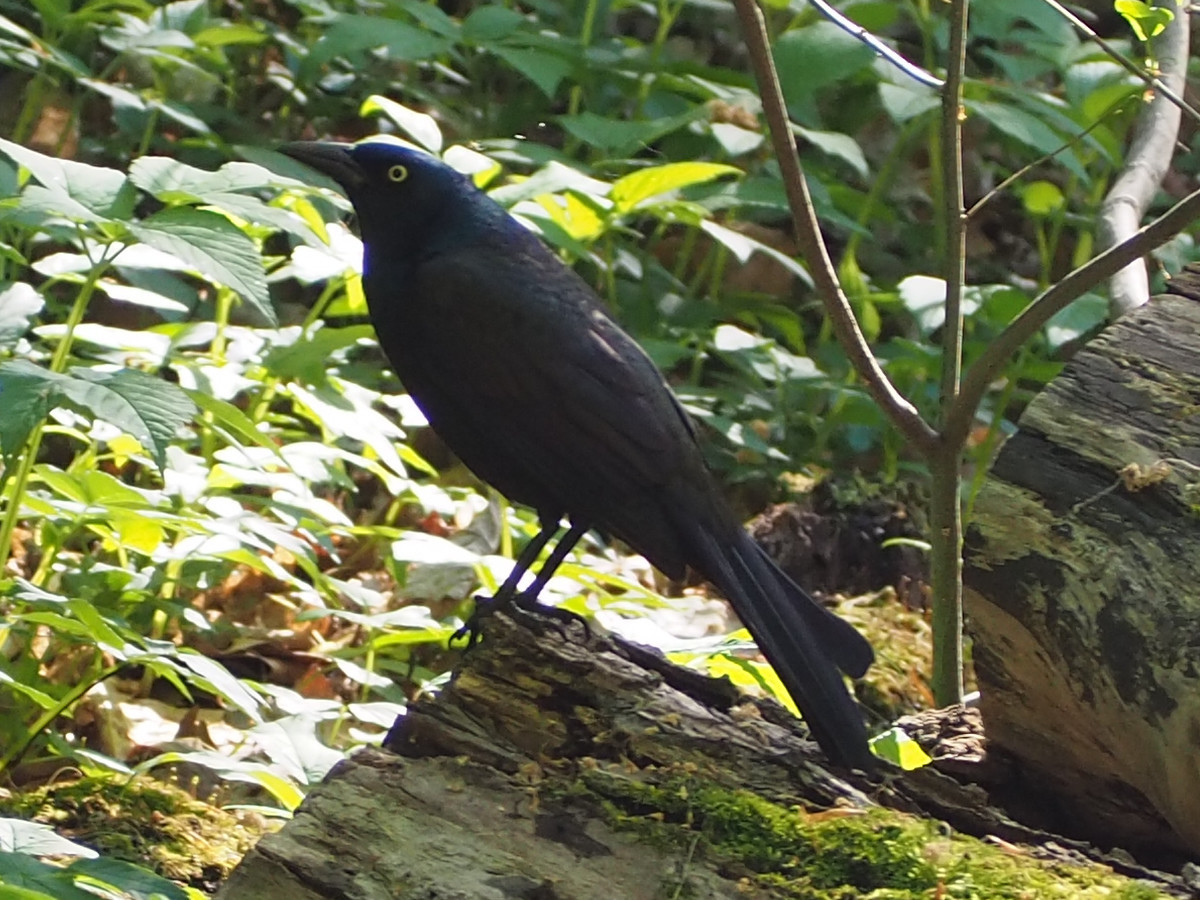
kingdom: Animalia
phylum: Chordata
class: Aves
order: Passeriformes
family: Icteridae
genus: Quiscalus
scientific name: Quiscalus quiscula
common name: Common grackle
